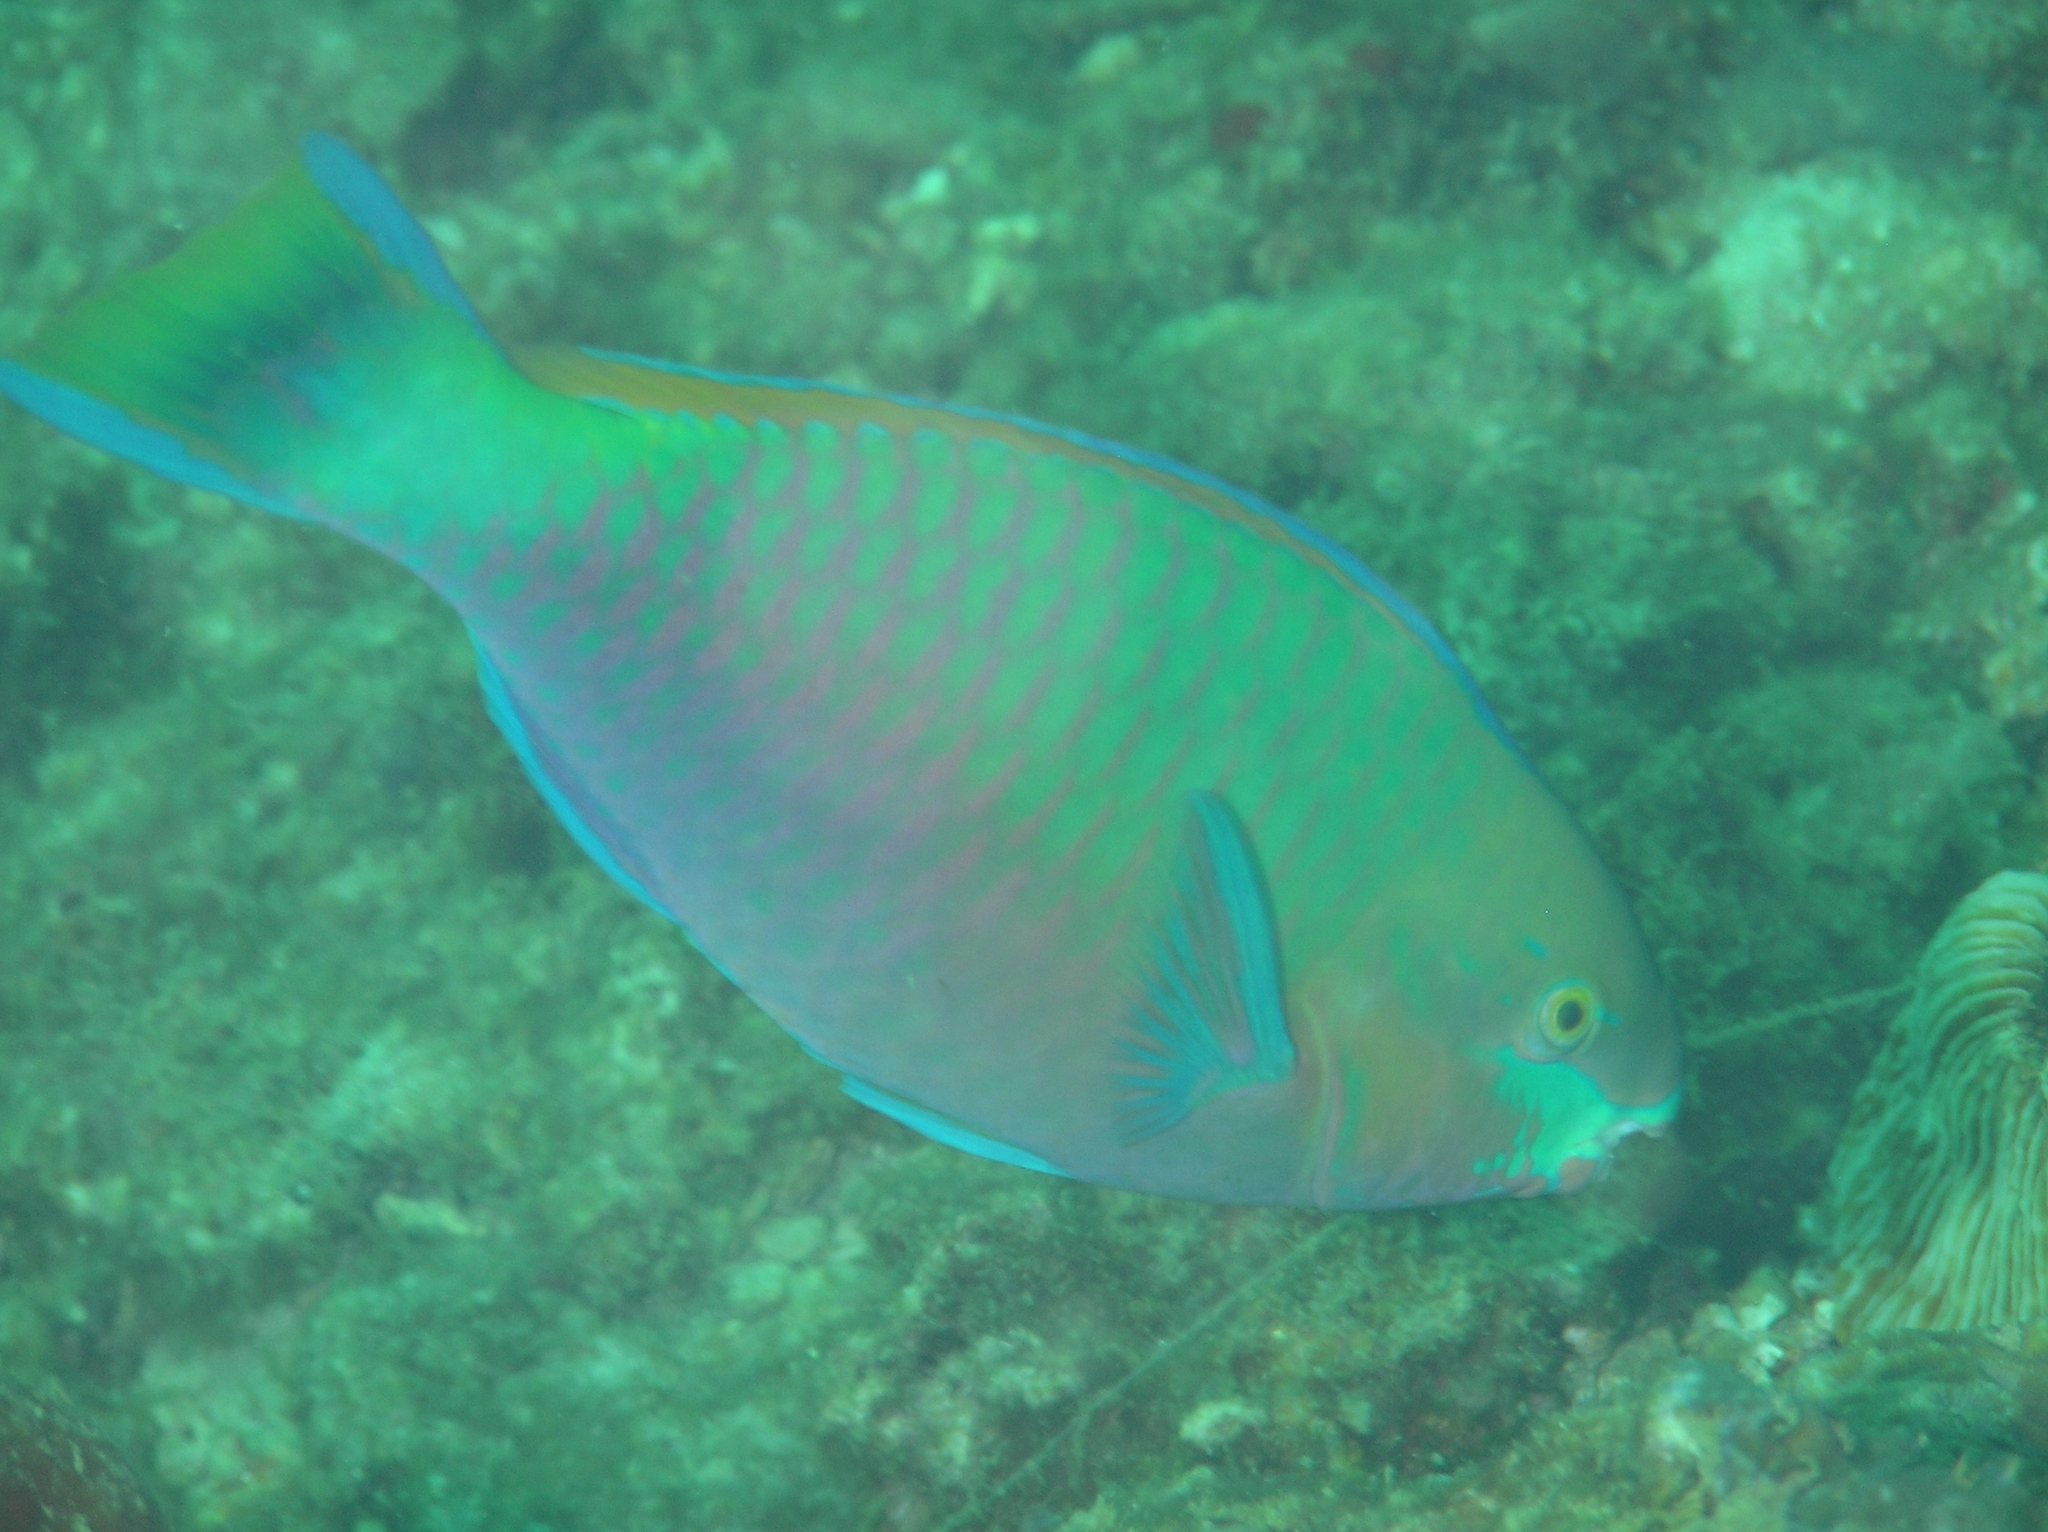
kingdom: Animalia
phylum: Chordata
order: Perciformes
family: Scaridae
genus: Scarus
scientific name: Scarus quoyi
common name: Quoy's parrotfish
